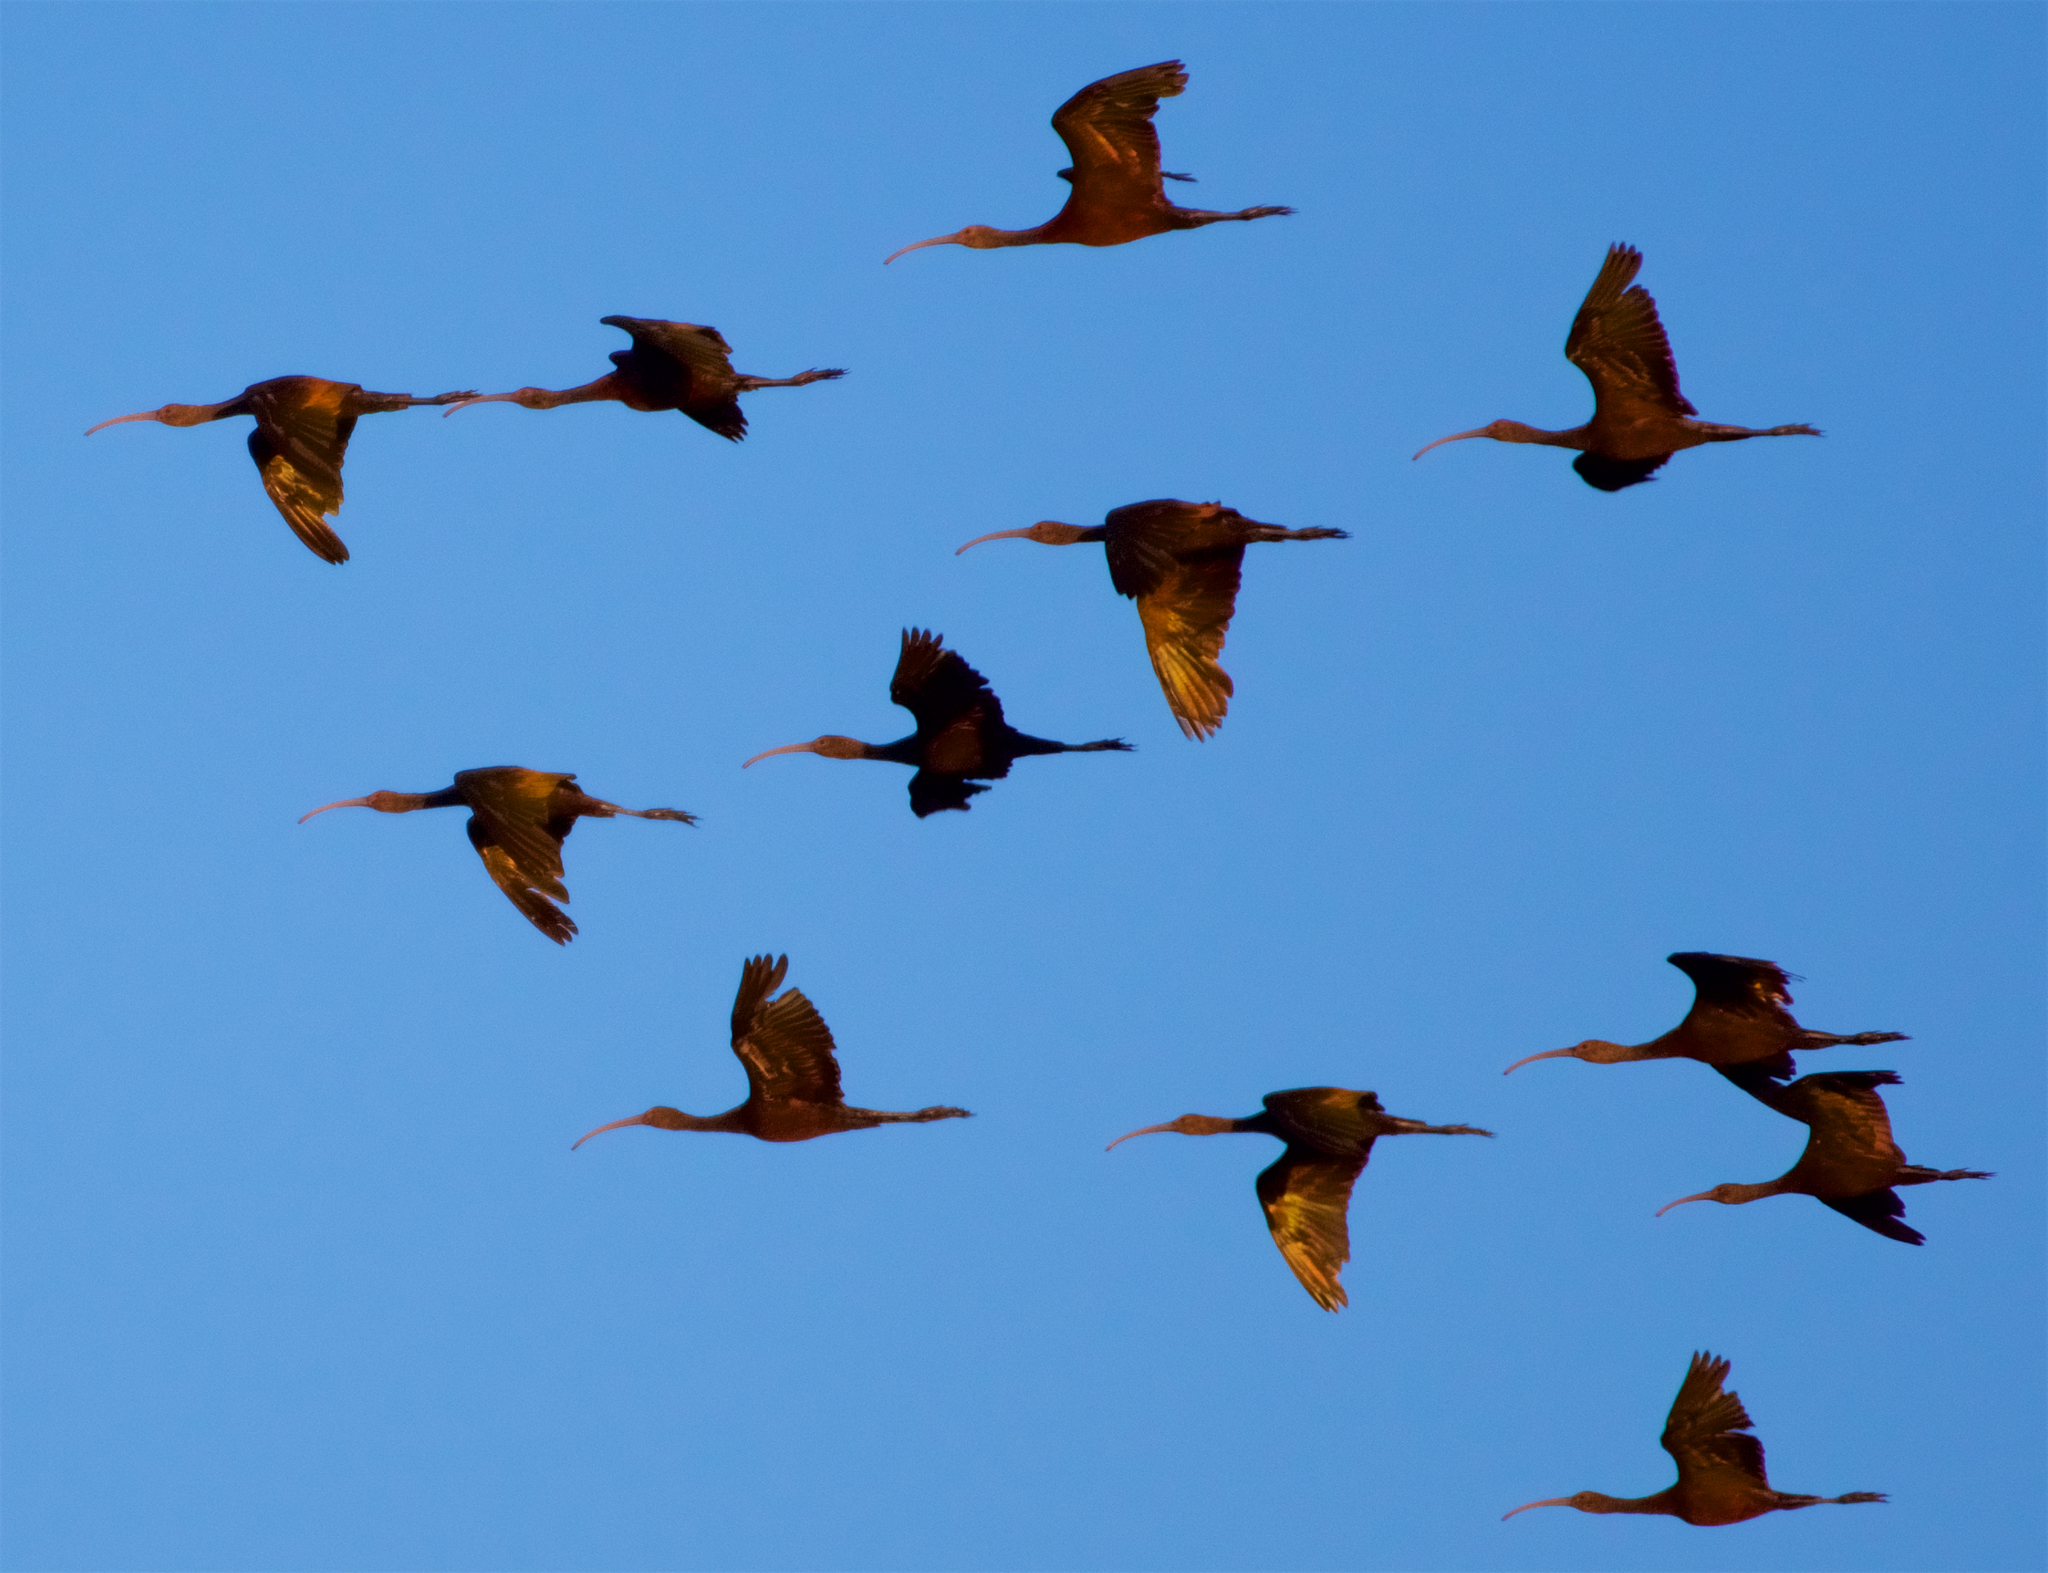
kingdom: Animalia
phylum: Chordata
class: Aves
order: Pelecaniformes
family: Threskiornithidae
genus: Plegadis
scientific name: Plegadis chihi
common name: White-faced ibis
